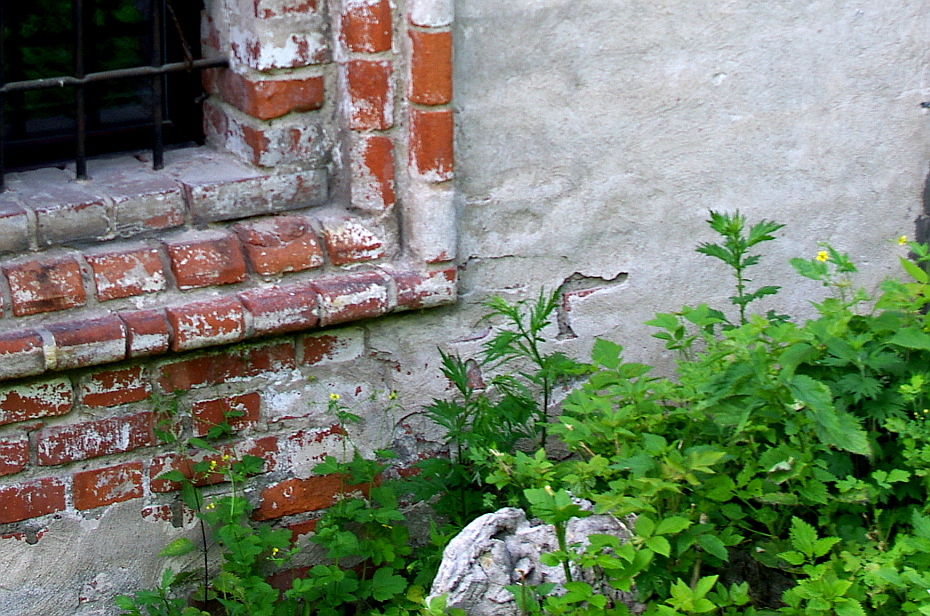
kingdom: Plantae
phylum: Tracheophyta
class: Magnoliopsida
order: Rosales
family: Rosaceae
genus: Geum
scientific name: Geum urbanum
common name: Wood avens
